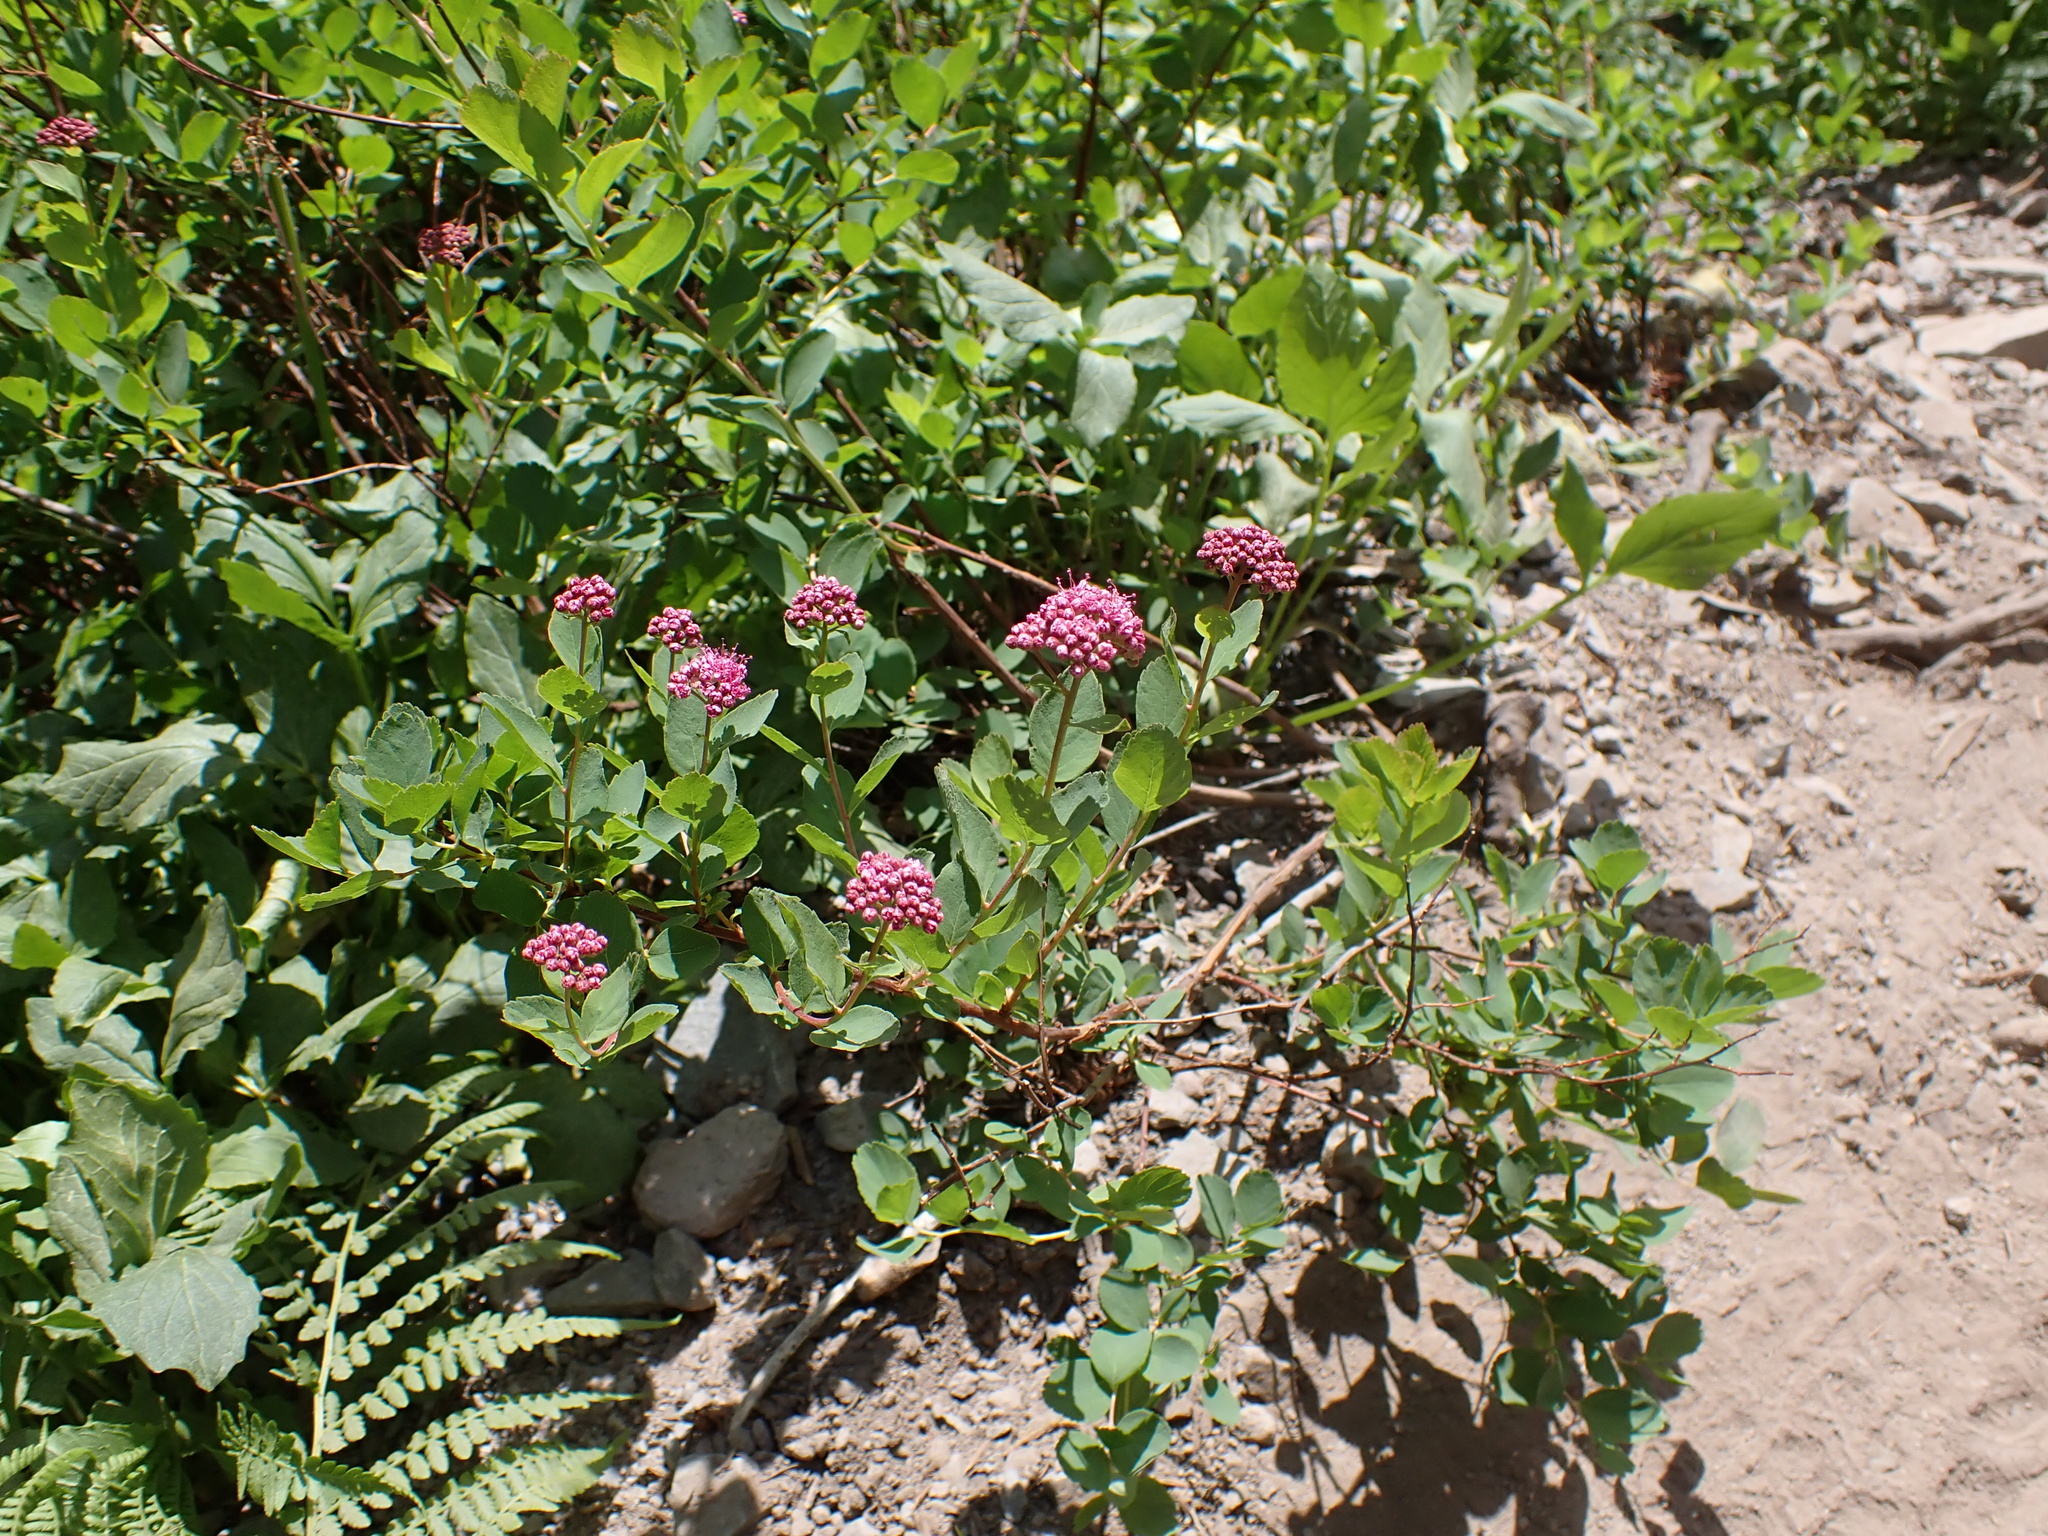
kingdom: Plantae
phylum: Tracheophyta
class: Magnoliopsida
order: Rosales
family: Rosaceae
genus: Spiraea
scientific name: Spiraea splendens
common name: Subalpine meadowsweet
